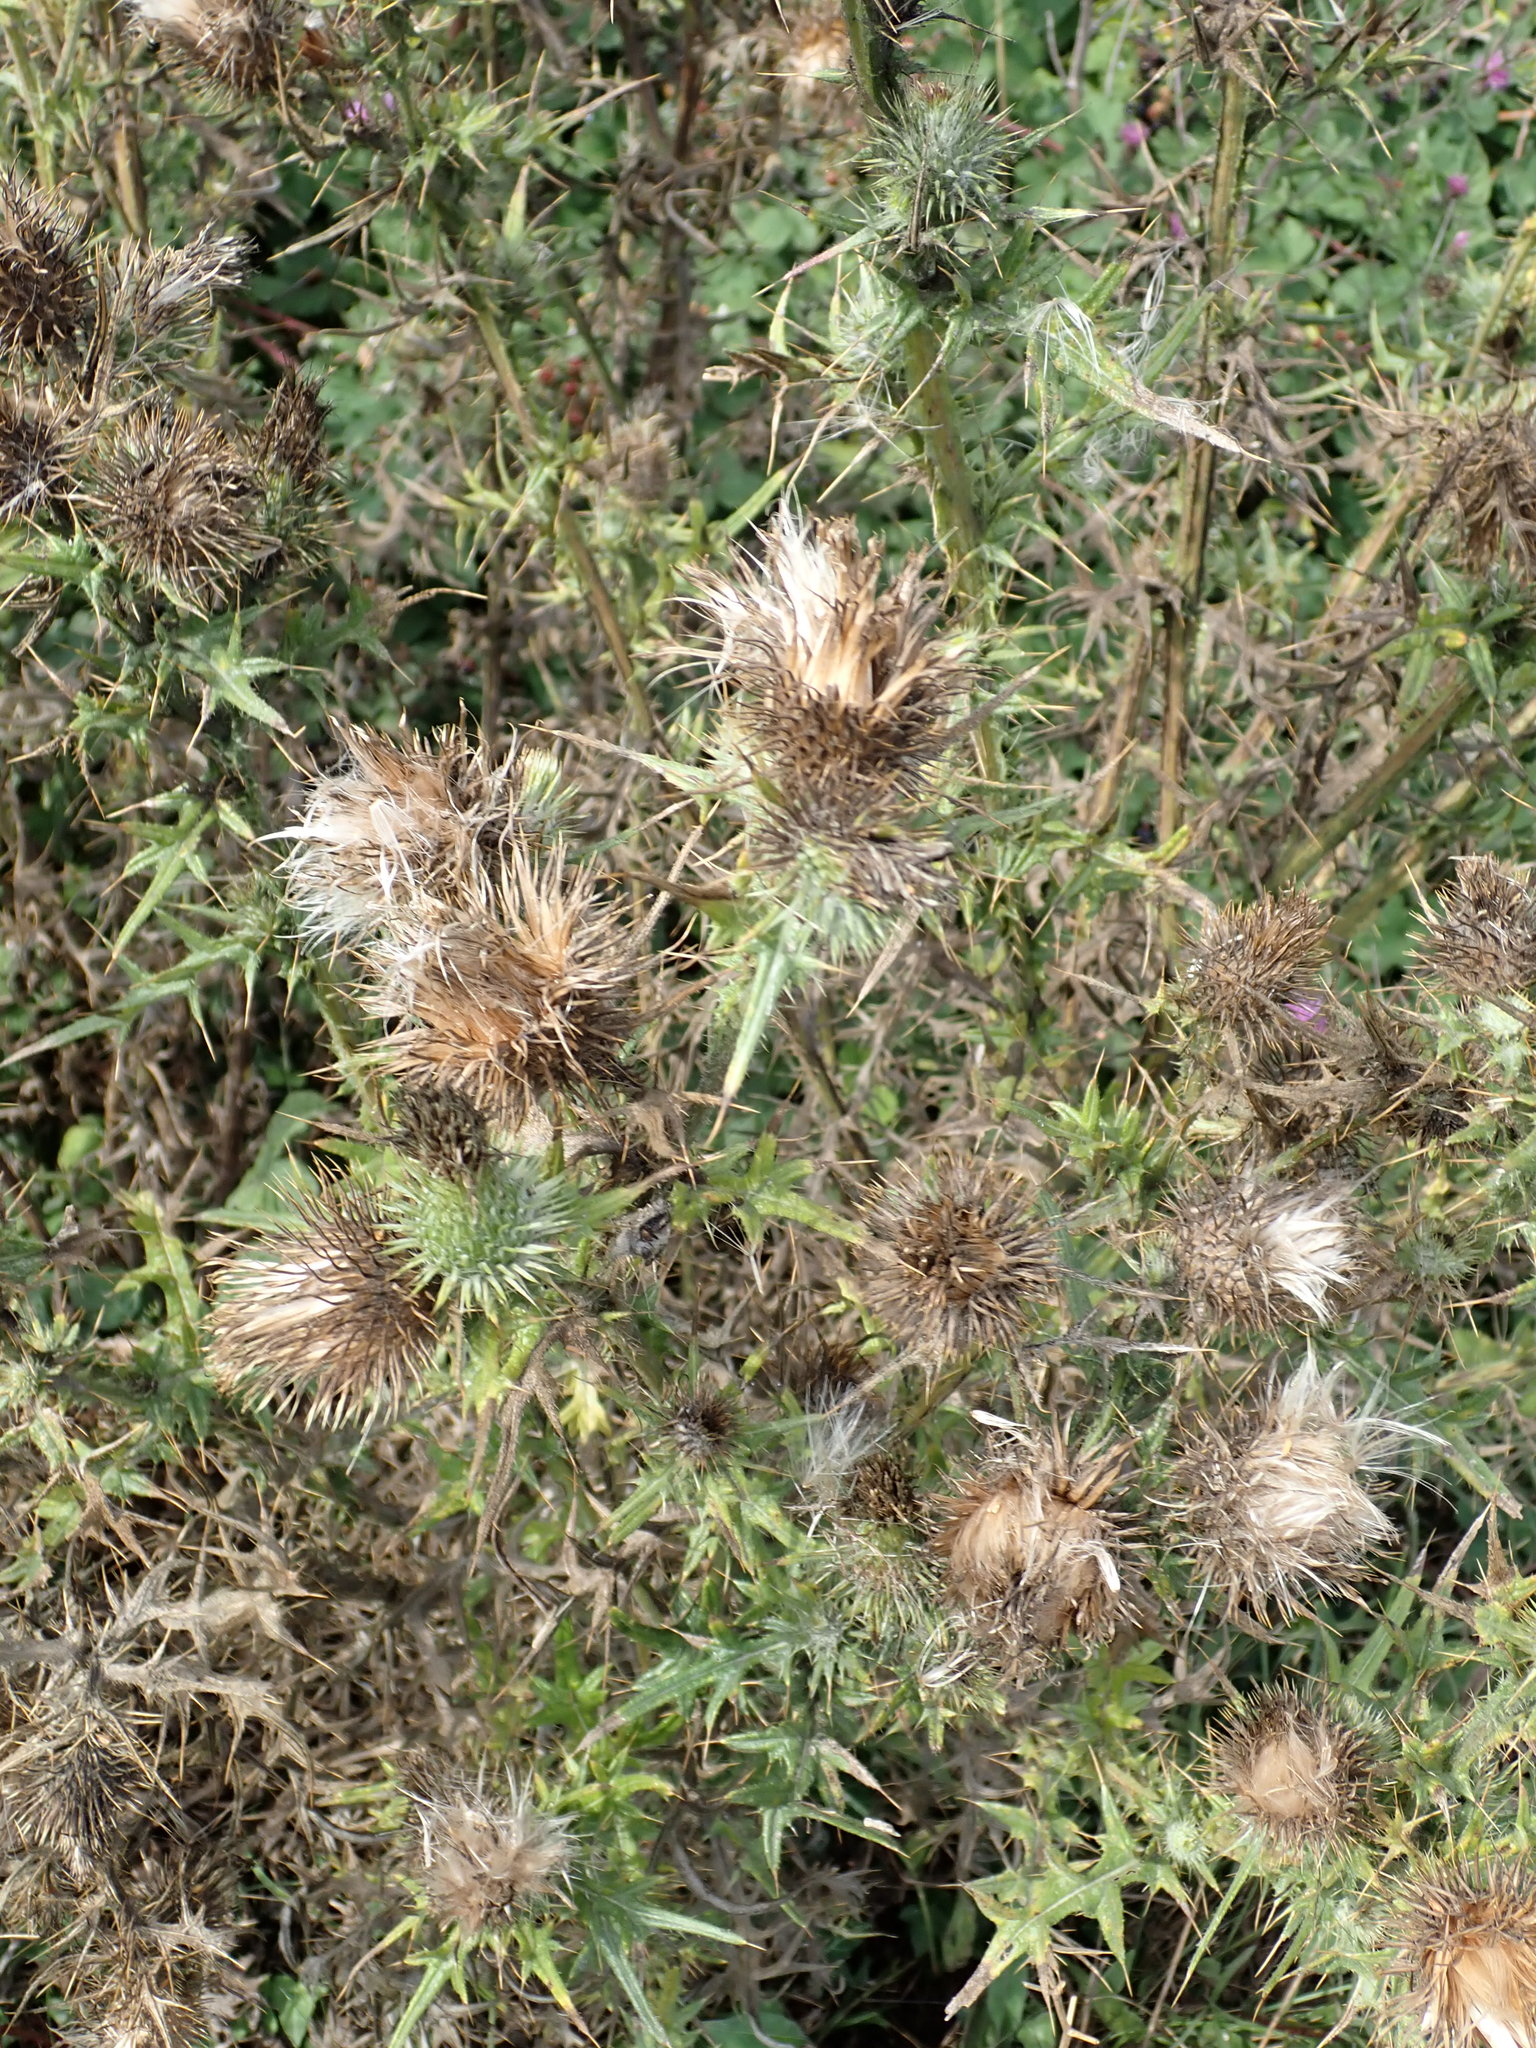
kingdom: Plantae
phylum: Tracheophyta
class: Magnoliopsida
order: Asterales
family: Asteraceae
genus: Cirsium
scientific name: Cirsium vulgare
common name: Bull thistle
